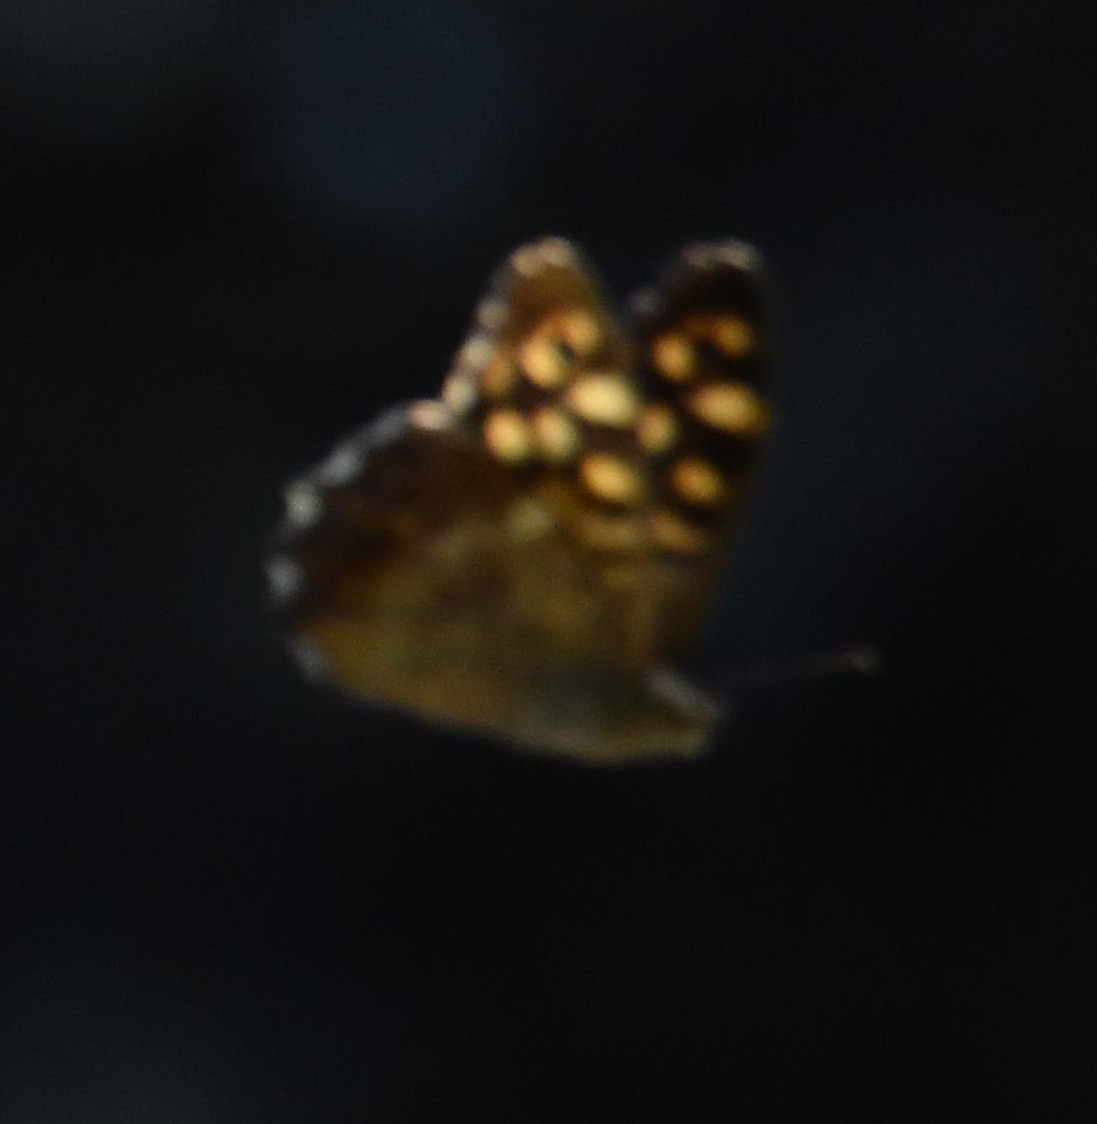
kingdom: Animalia
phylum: Arthropoda
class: Insecta
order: Lepidoptera
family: Nymphalidae
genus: Pararge
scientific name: Pararge aegeria
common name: Speckled wood
